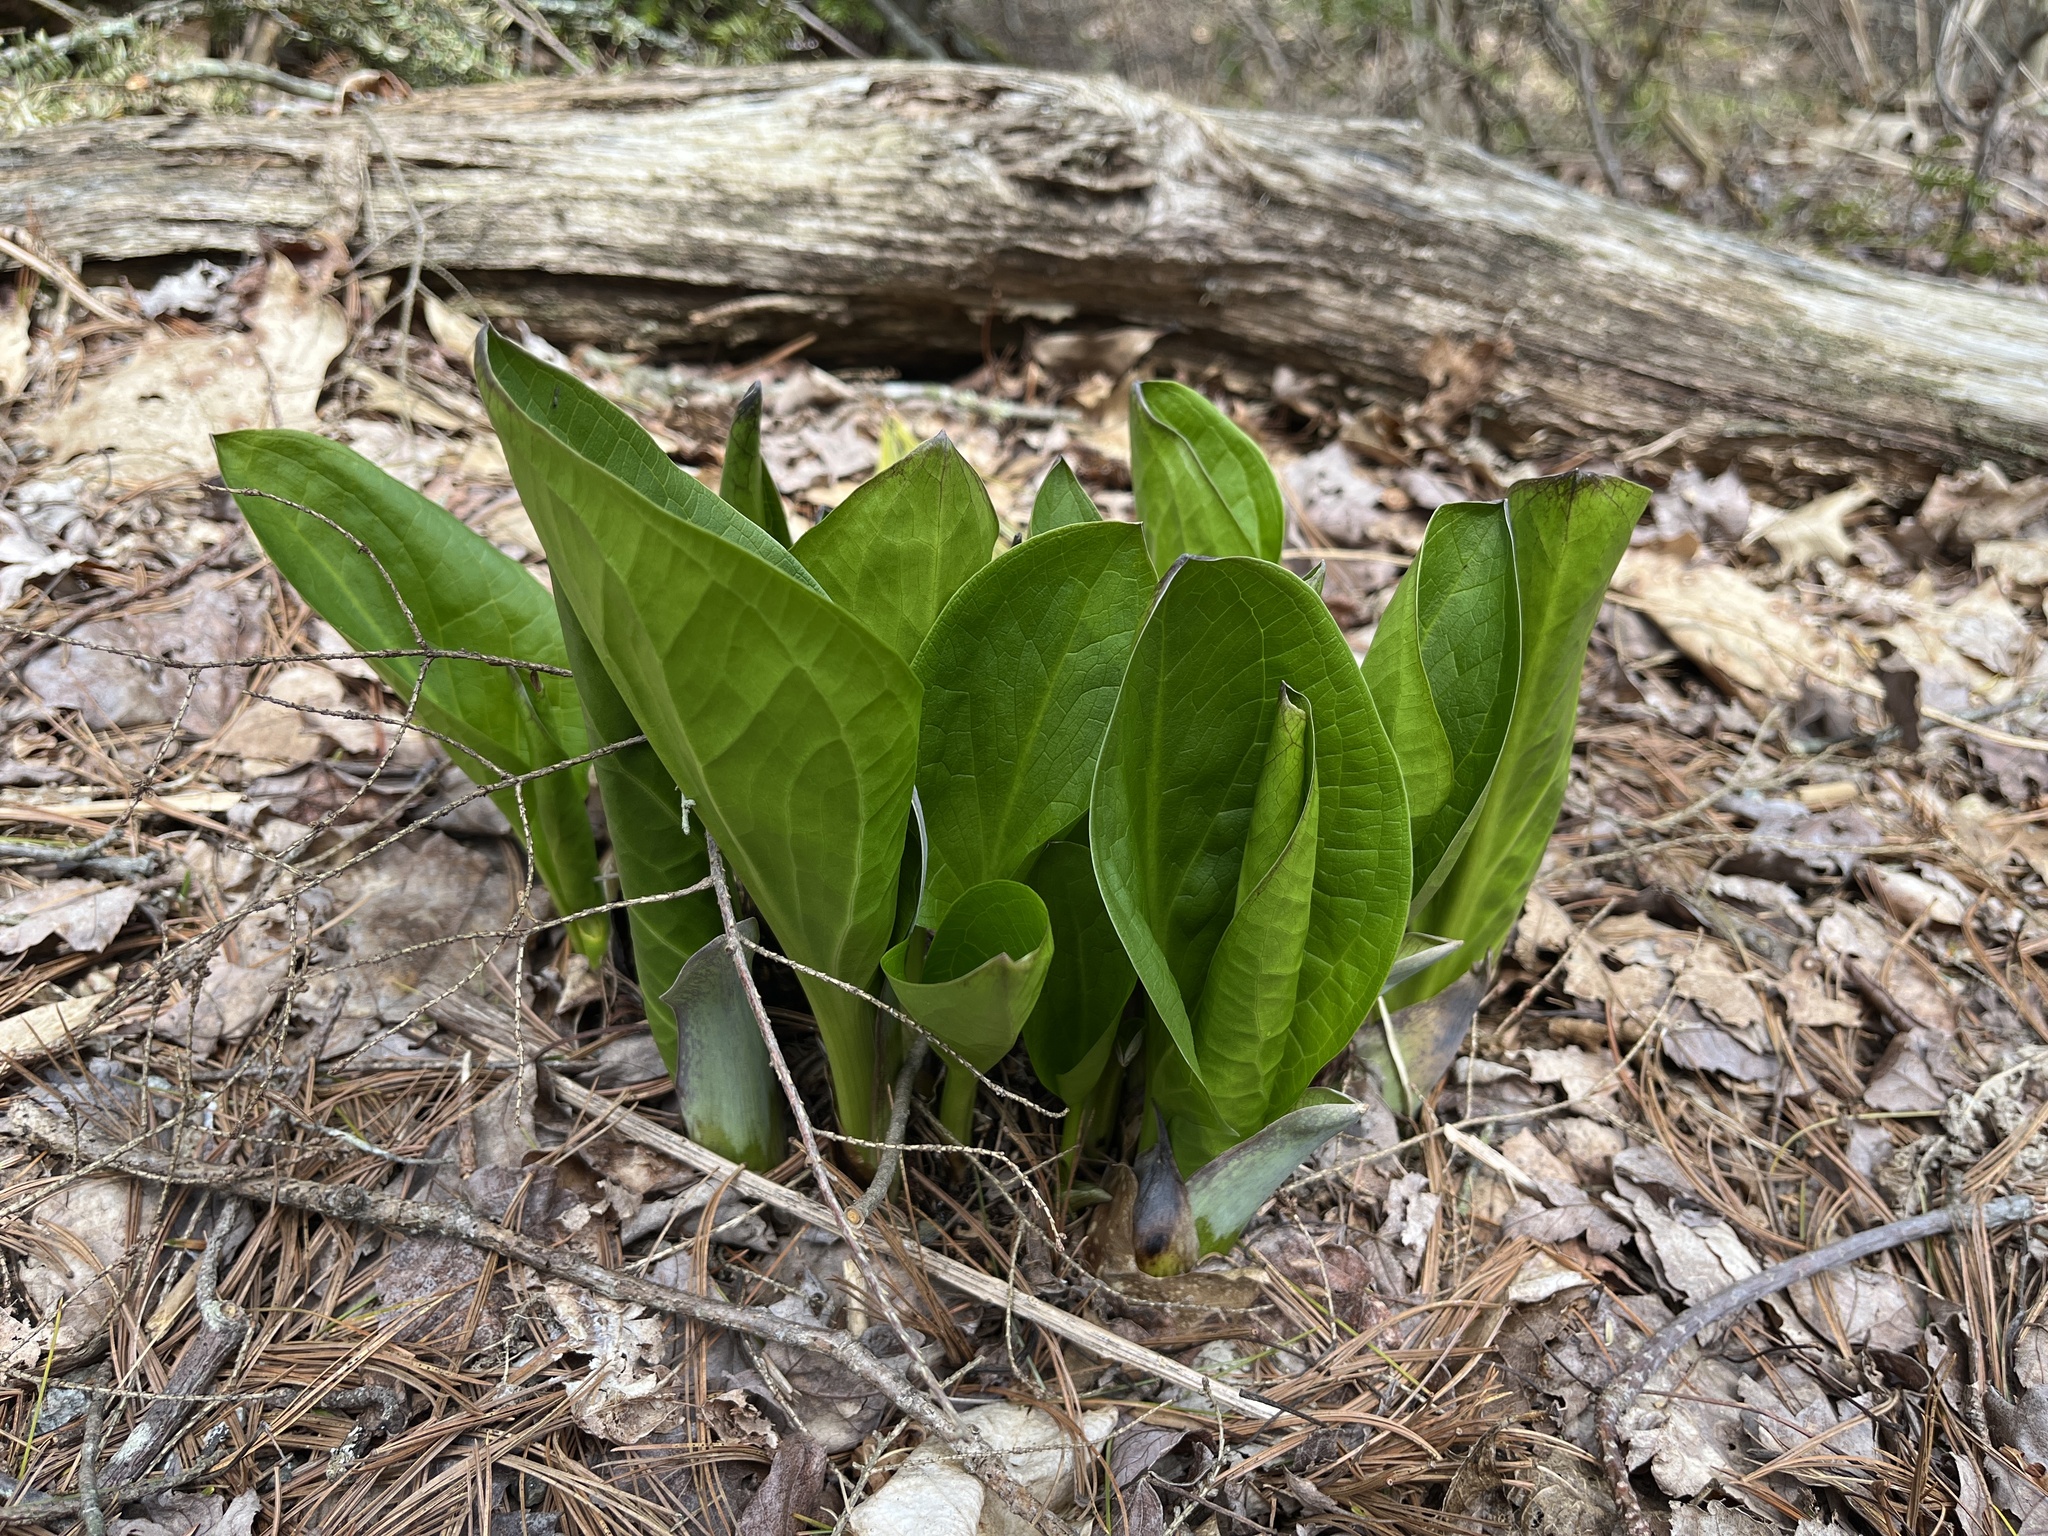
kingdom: Plantae
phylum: Tracheophyta
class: Liliopsida
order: Alismatales
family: Araceae
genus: Symplocarpus
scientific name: Symplocarpus foetidus
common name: Eastern skunk cabbage
